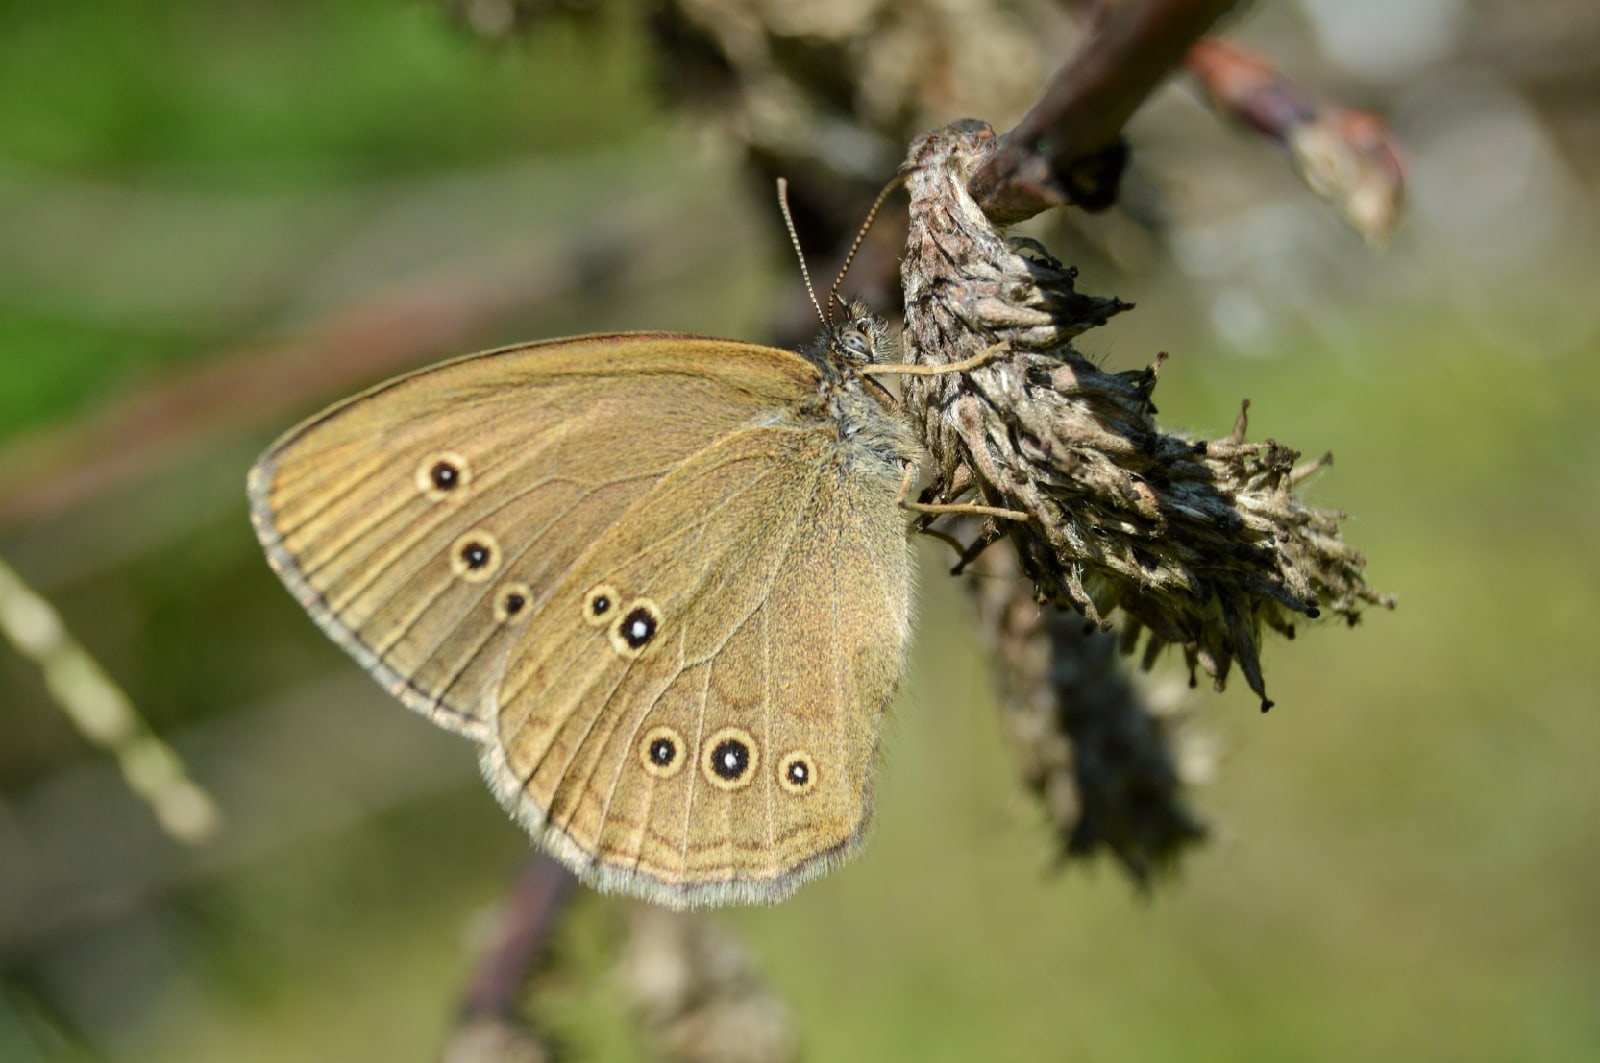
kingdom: Animalia
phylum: Arthropoda
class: Insecta
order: Lepidoptera
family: Nymphalidae
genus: Aphantopus
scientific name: Aphantopus hyperantus
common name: Ringlet
